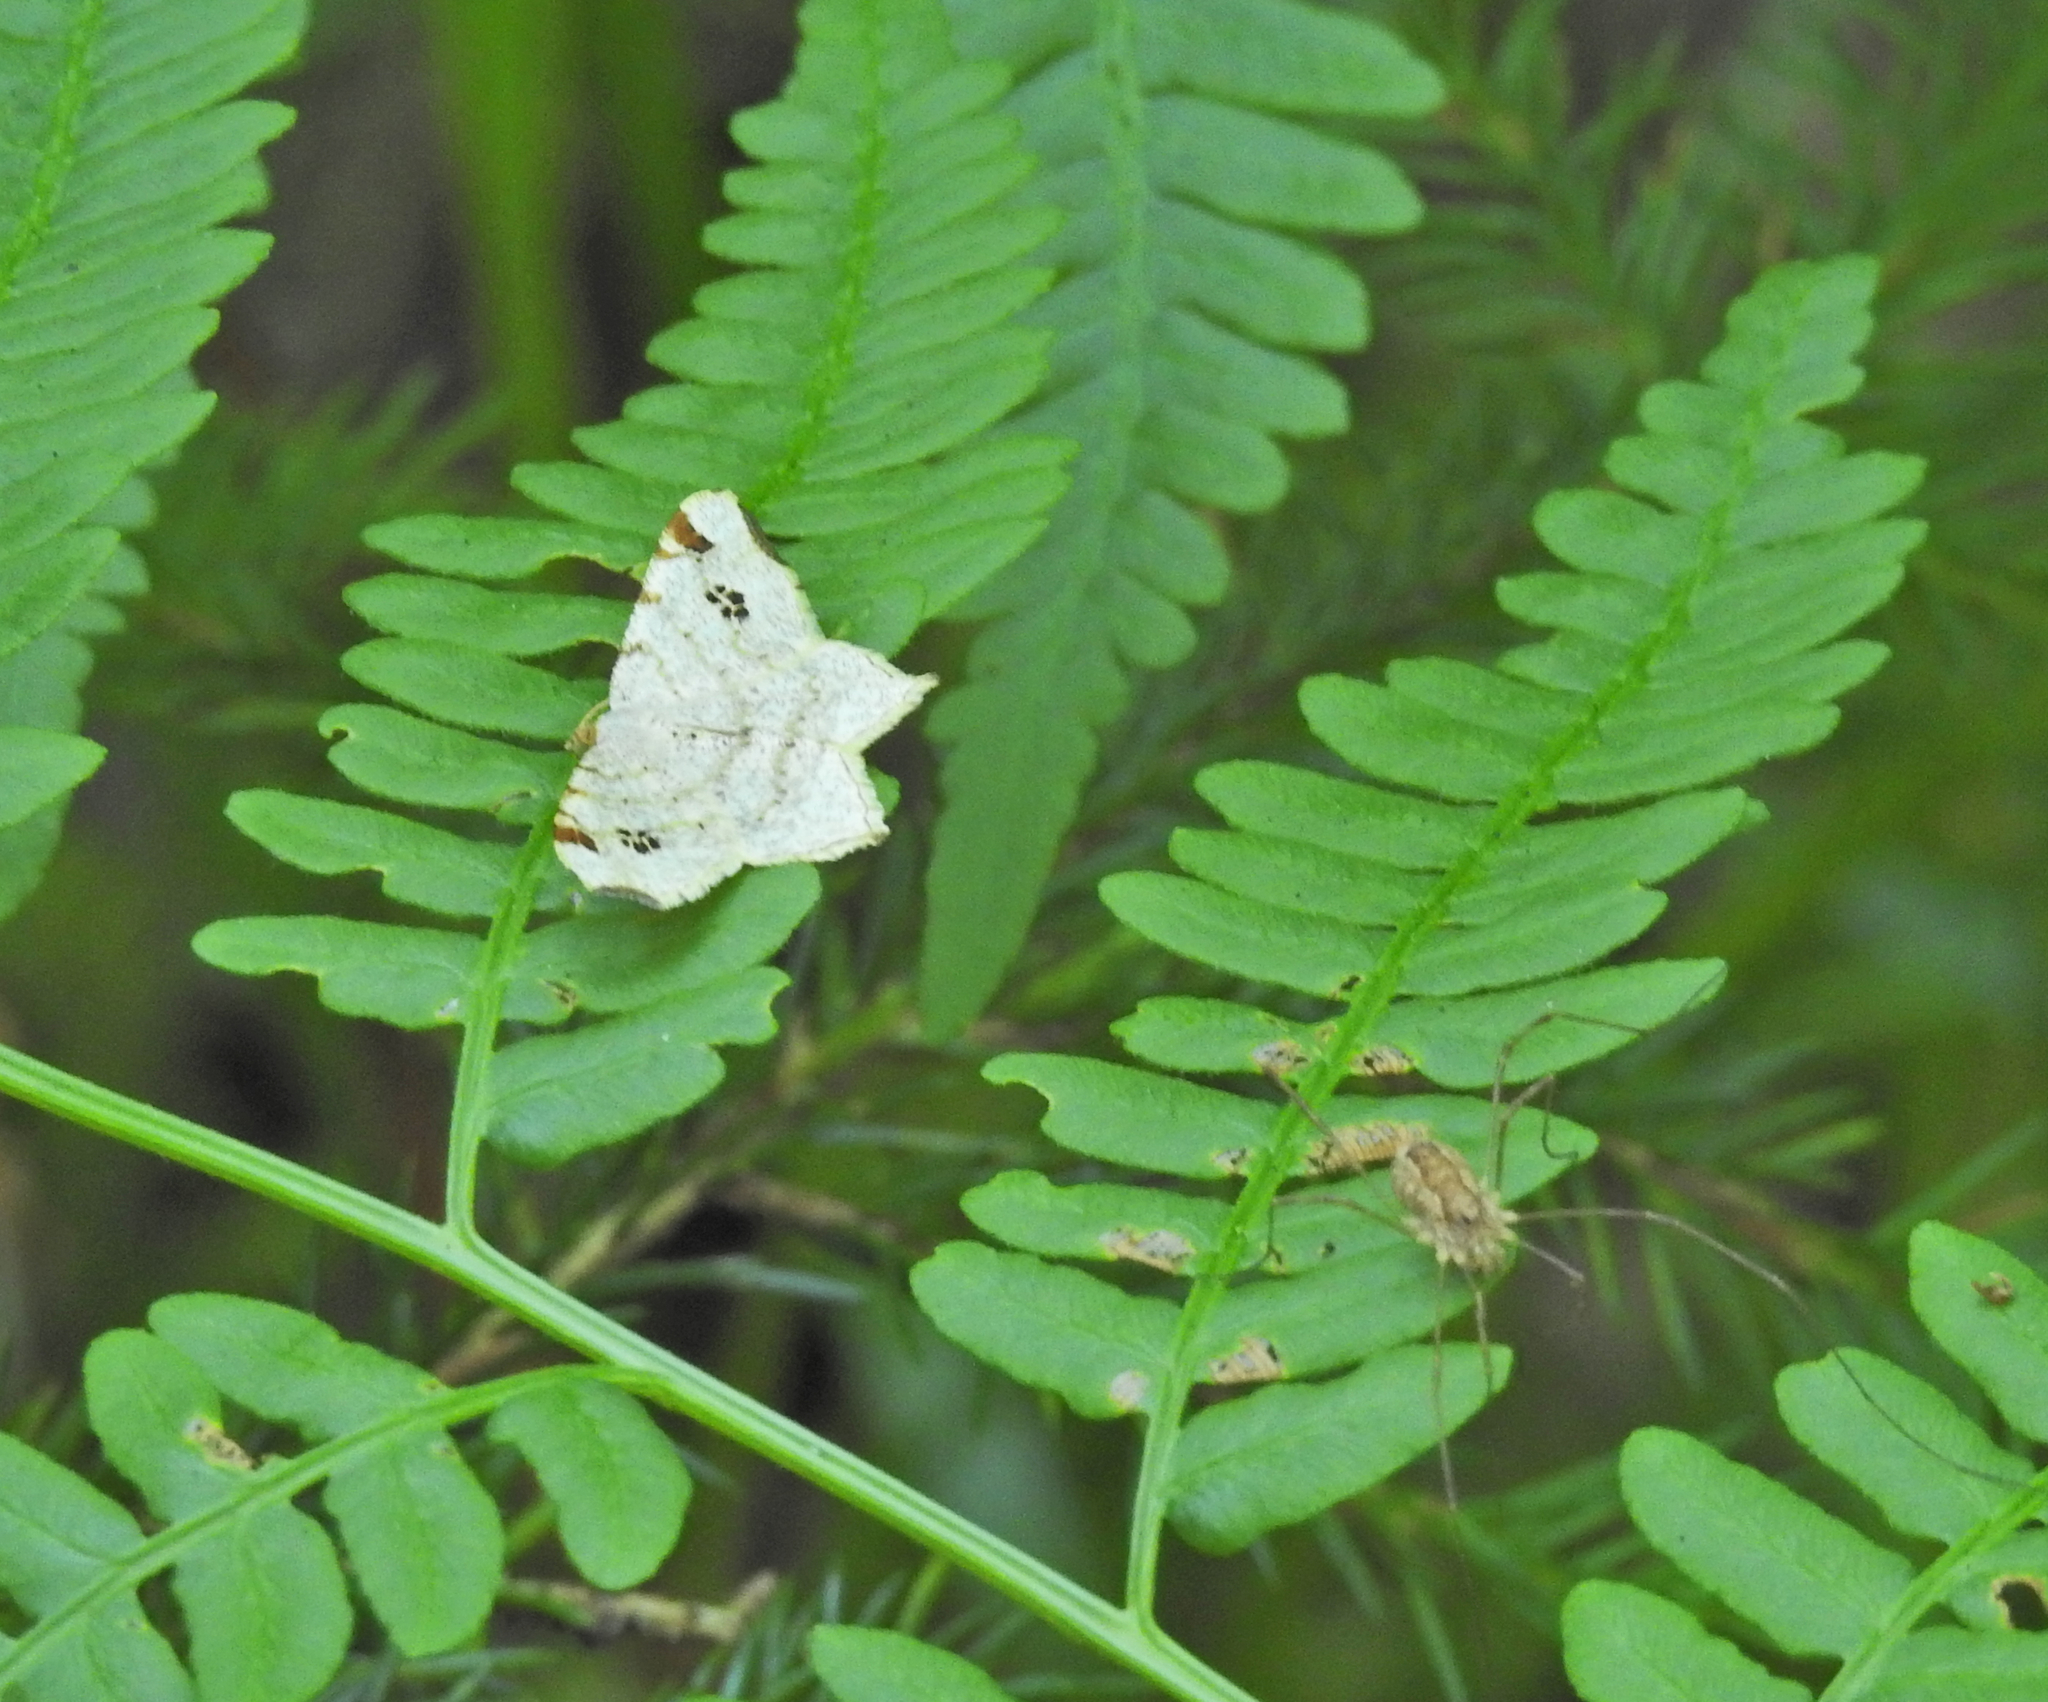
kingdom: Animalia
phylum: Arthropoda
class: Arachnida
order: Opiliones
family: Phalangiidae
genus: Rilaena
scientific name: Rilaena triangularis
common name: Spring harvestman
